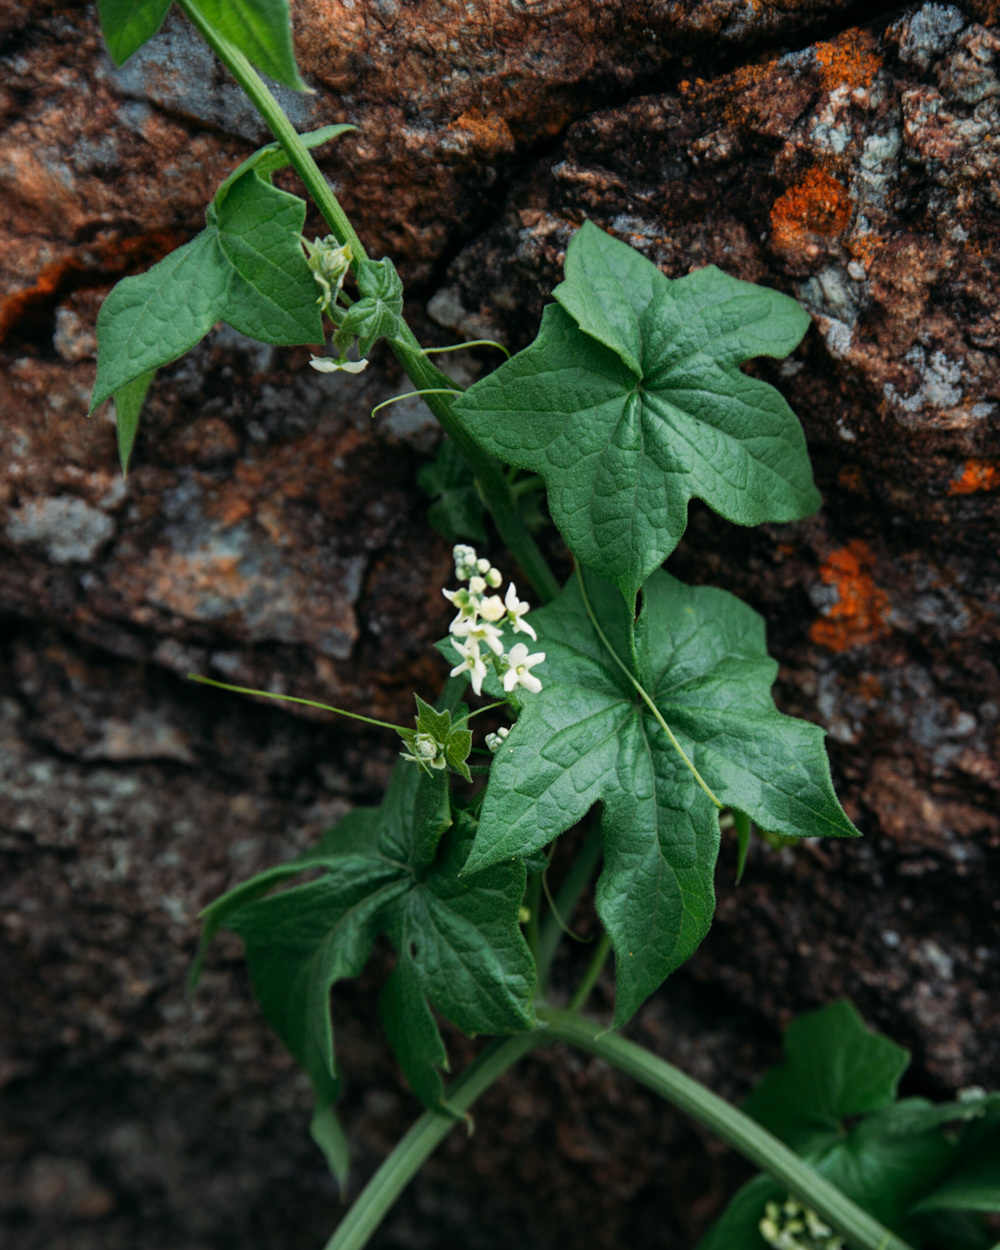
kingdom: Plantae
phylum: Tracheophyta
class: Magnoliopsida
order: Cucurbitales
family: Cucurbitaceae
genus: Marah
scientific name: Marah fabacea
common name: California manroot
